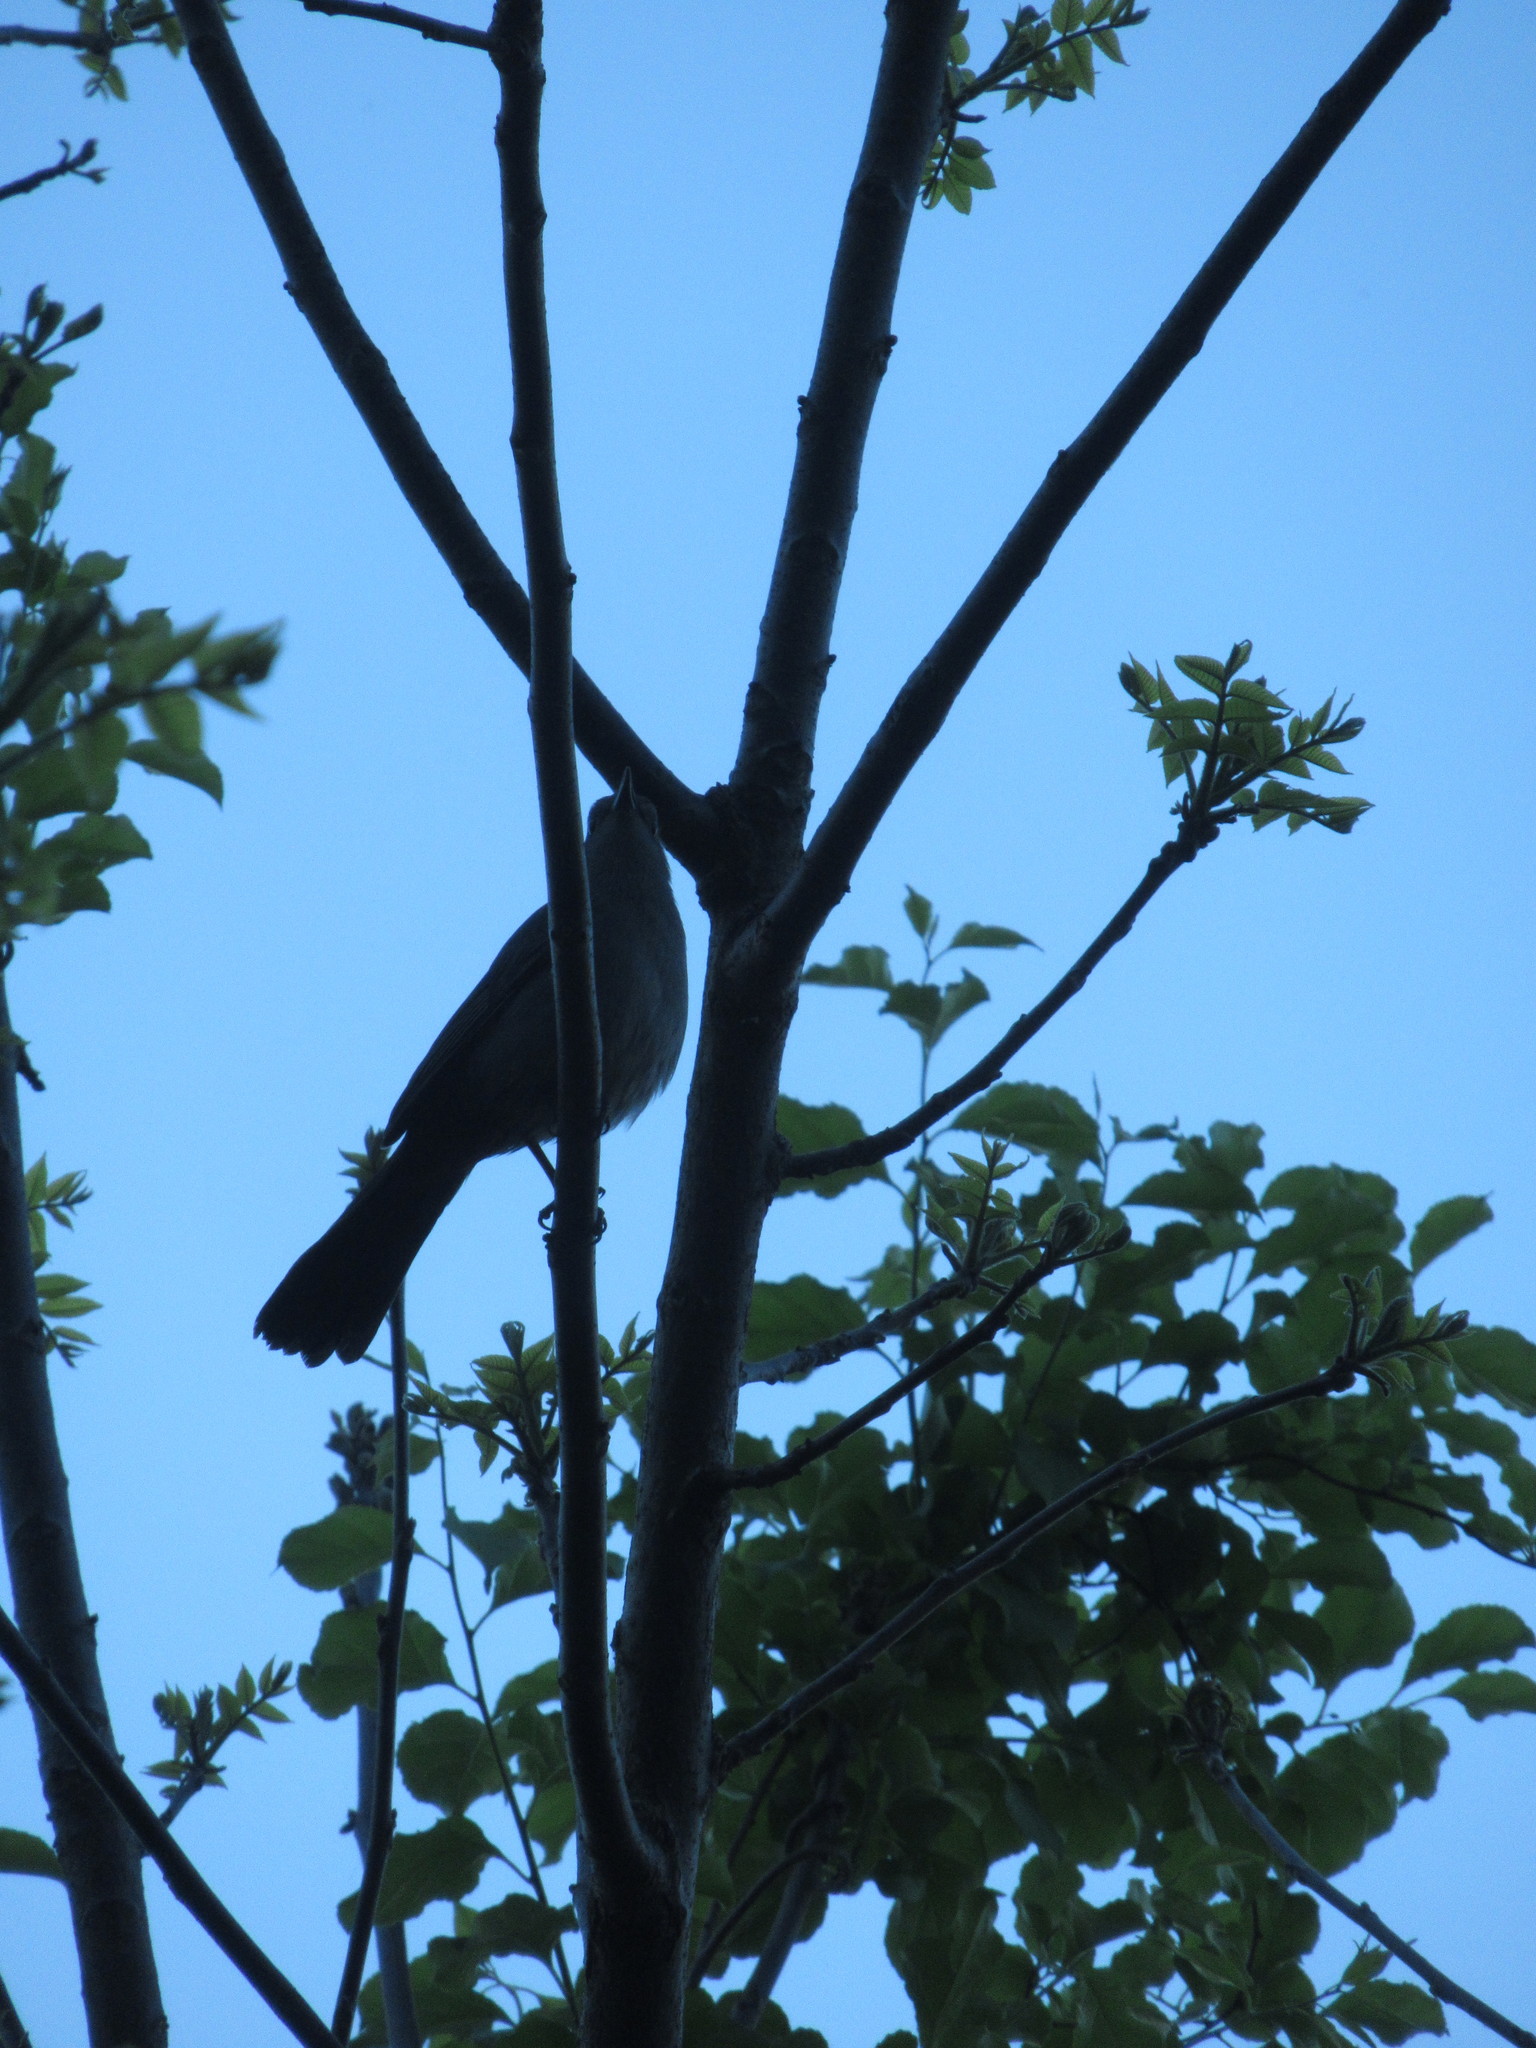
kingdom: Animalia
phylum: Chordata
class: Aves
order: Passeriformes
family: Mimidae
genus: Dumetella
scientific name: Dumetella carolinensis
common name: Gray catbird
